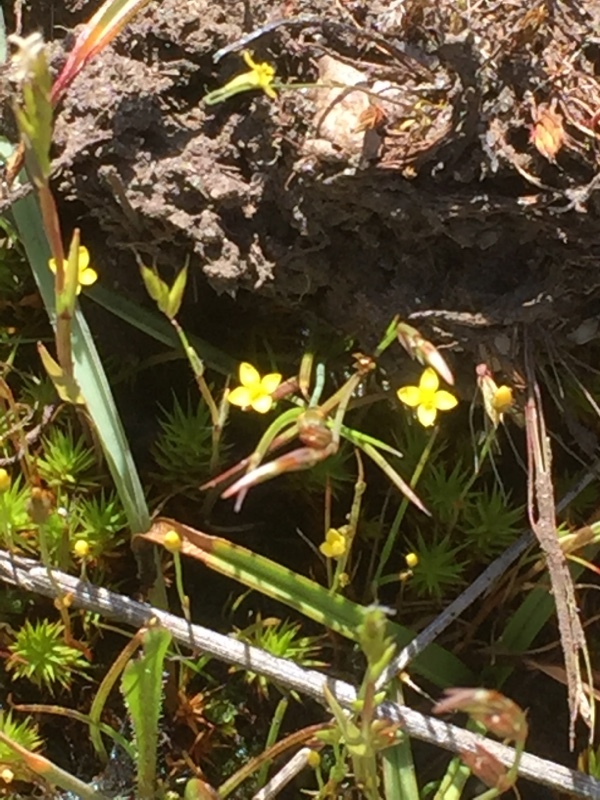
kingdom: Plantae
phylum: Tracheophyta
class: Magnoliopsida
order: Gentianales
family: Gentianaceae
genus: Cicendia
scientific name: Cicendia filiformis
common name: Yellow centaury
